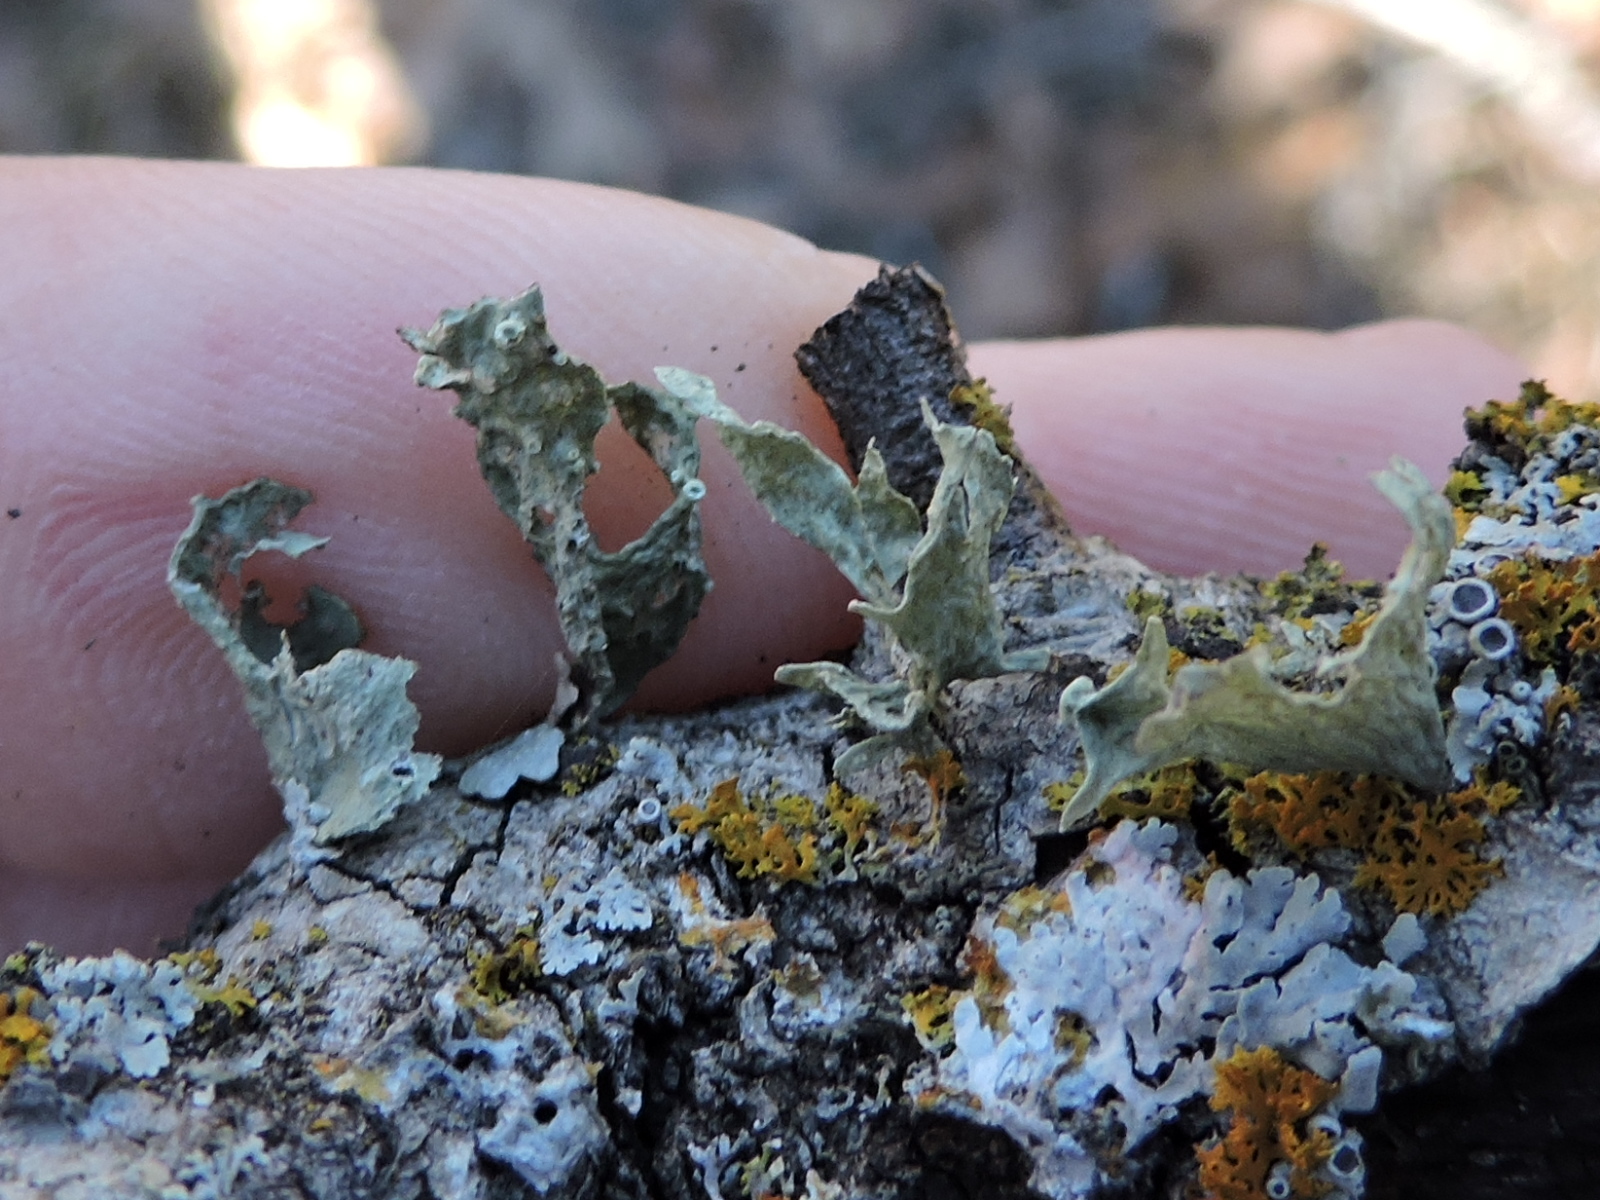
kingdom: Fungi
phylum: Ascomycota
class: Lecanoromycetes
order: Lecanorales
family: Ramalinaceae
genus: Ramalina
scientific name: Ramalina complanata
